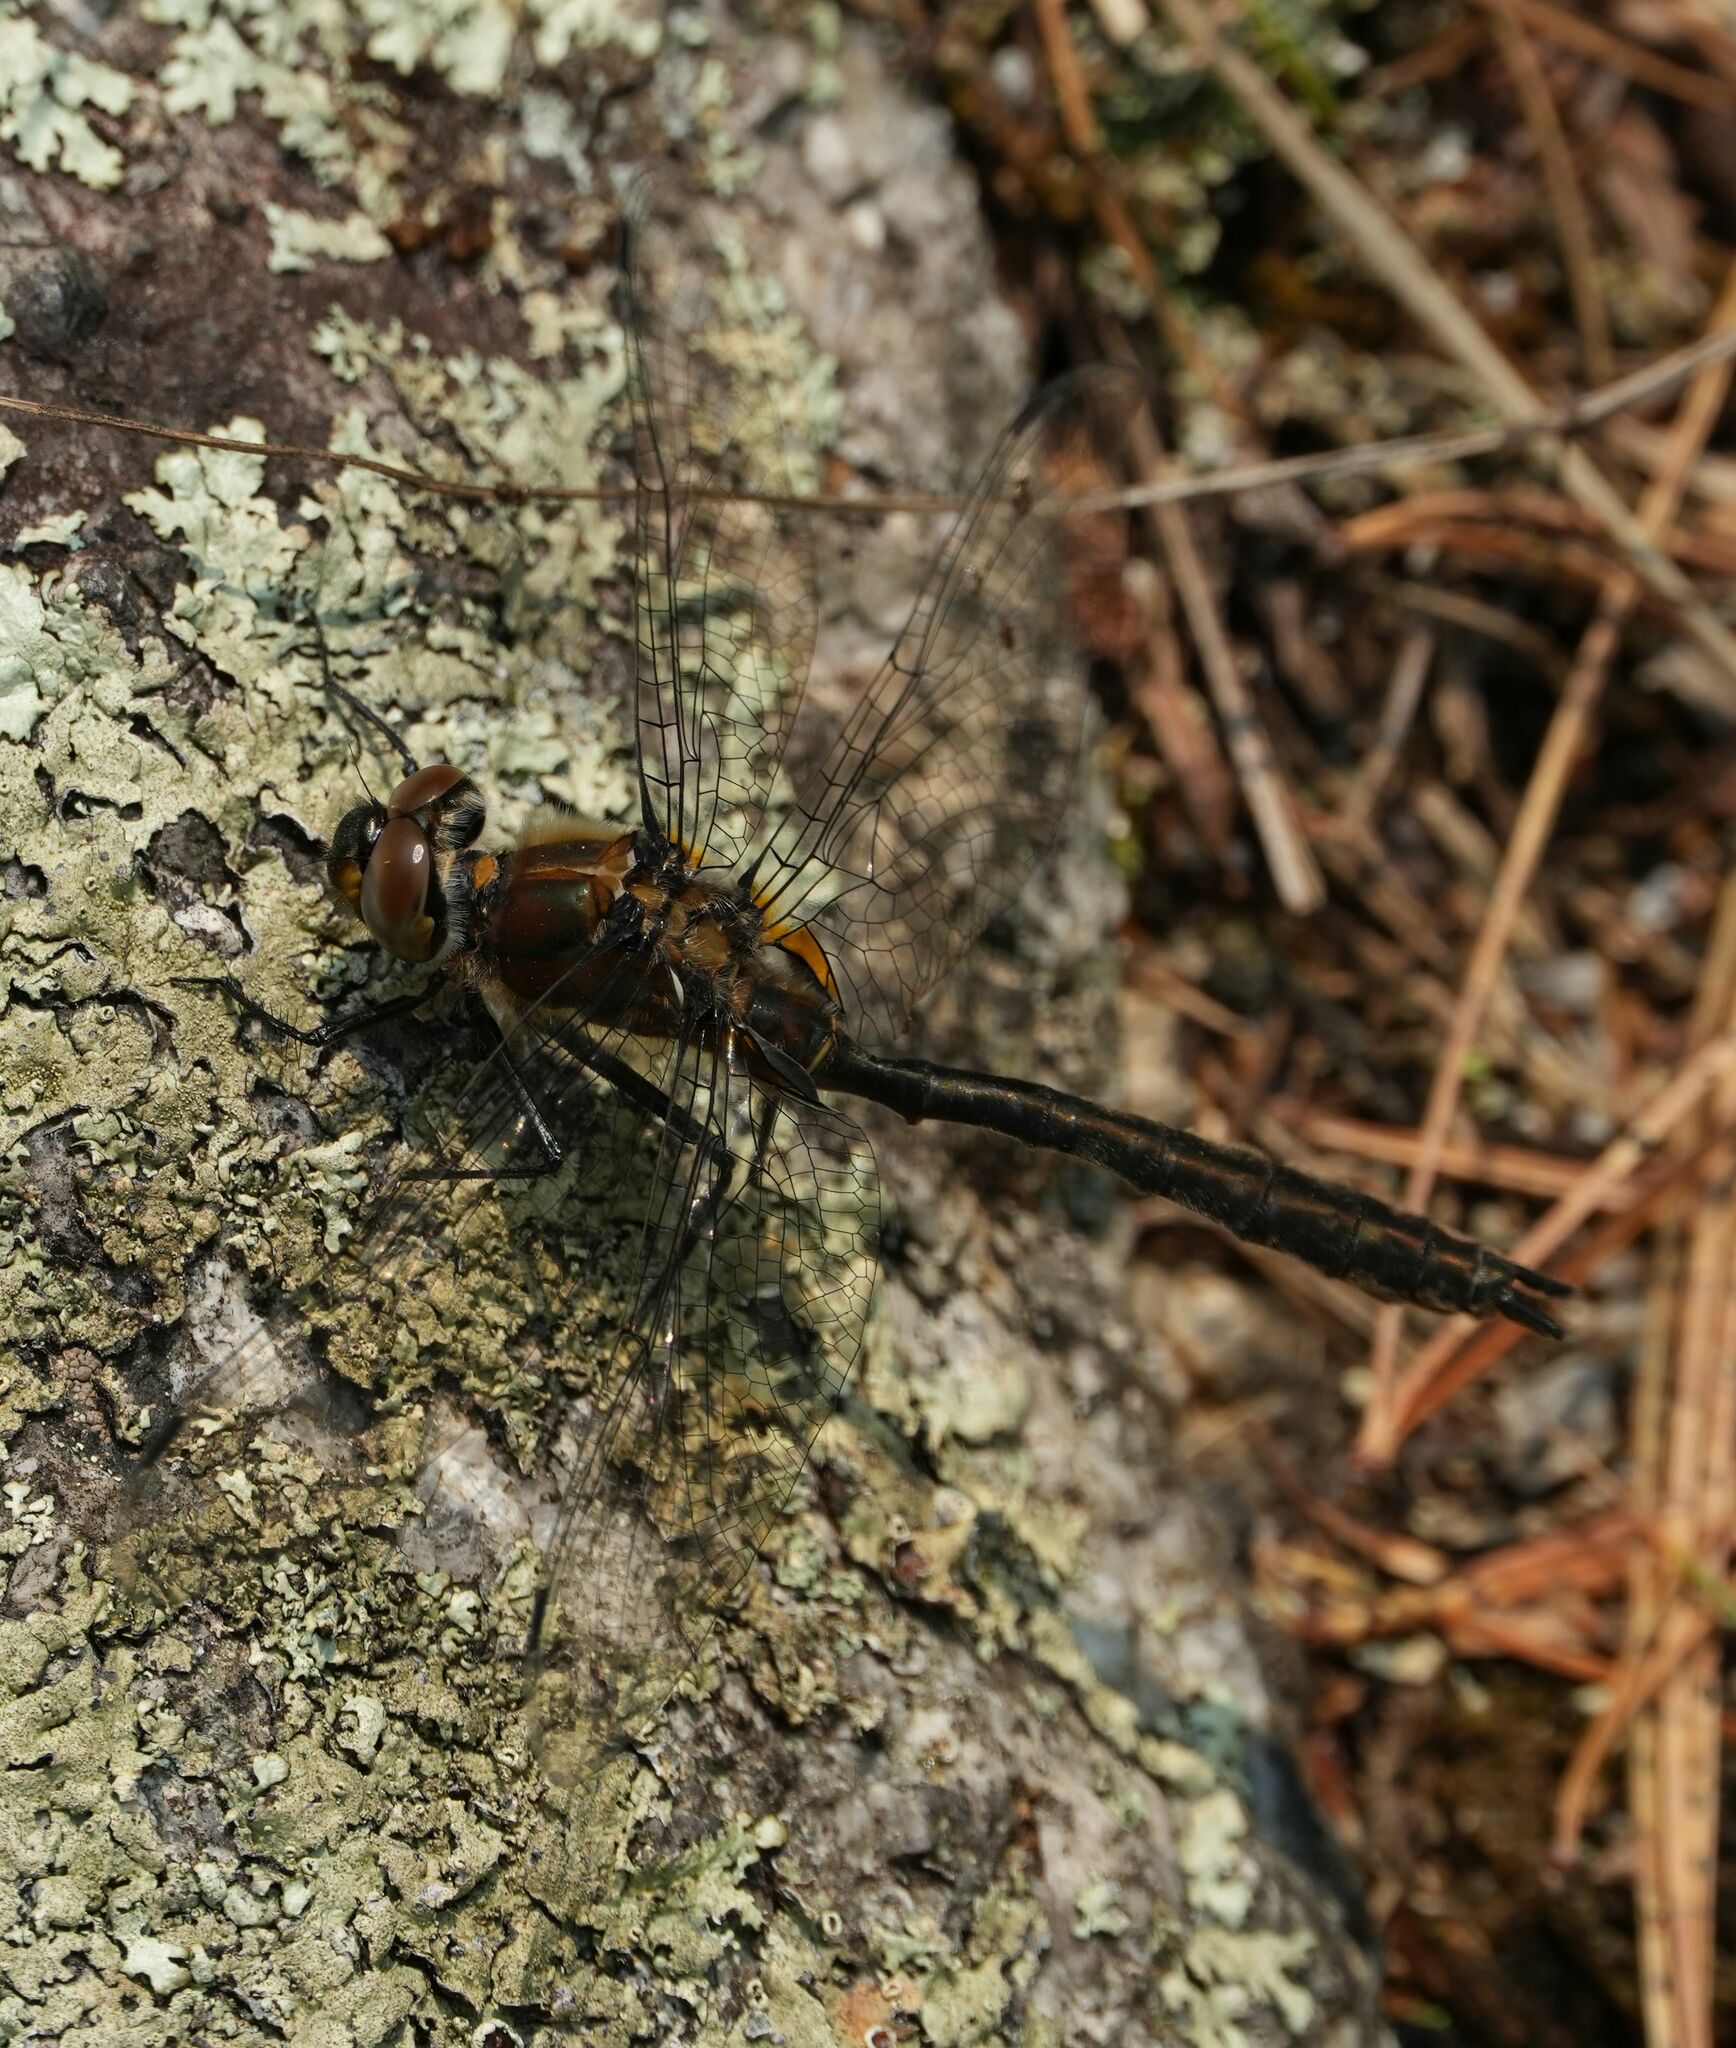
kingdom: Animalia
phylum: Arthropoda
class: Insecta
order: Odonata
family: Corduliidae
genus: Cordulia
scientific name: Cordulia shurtleffii
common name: American emerald
